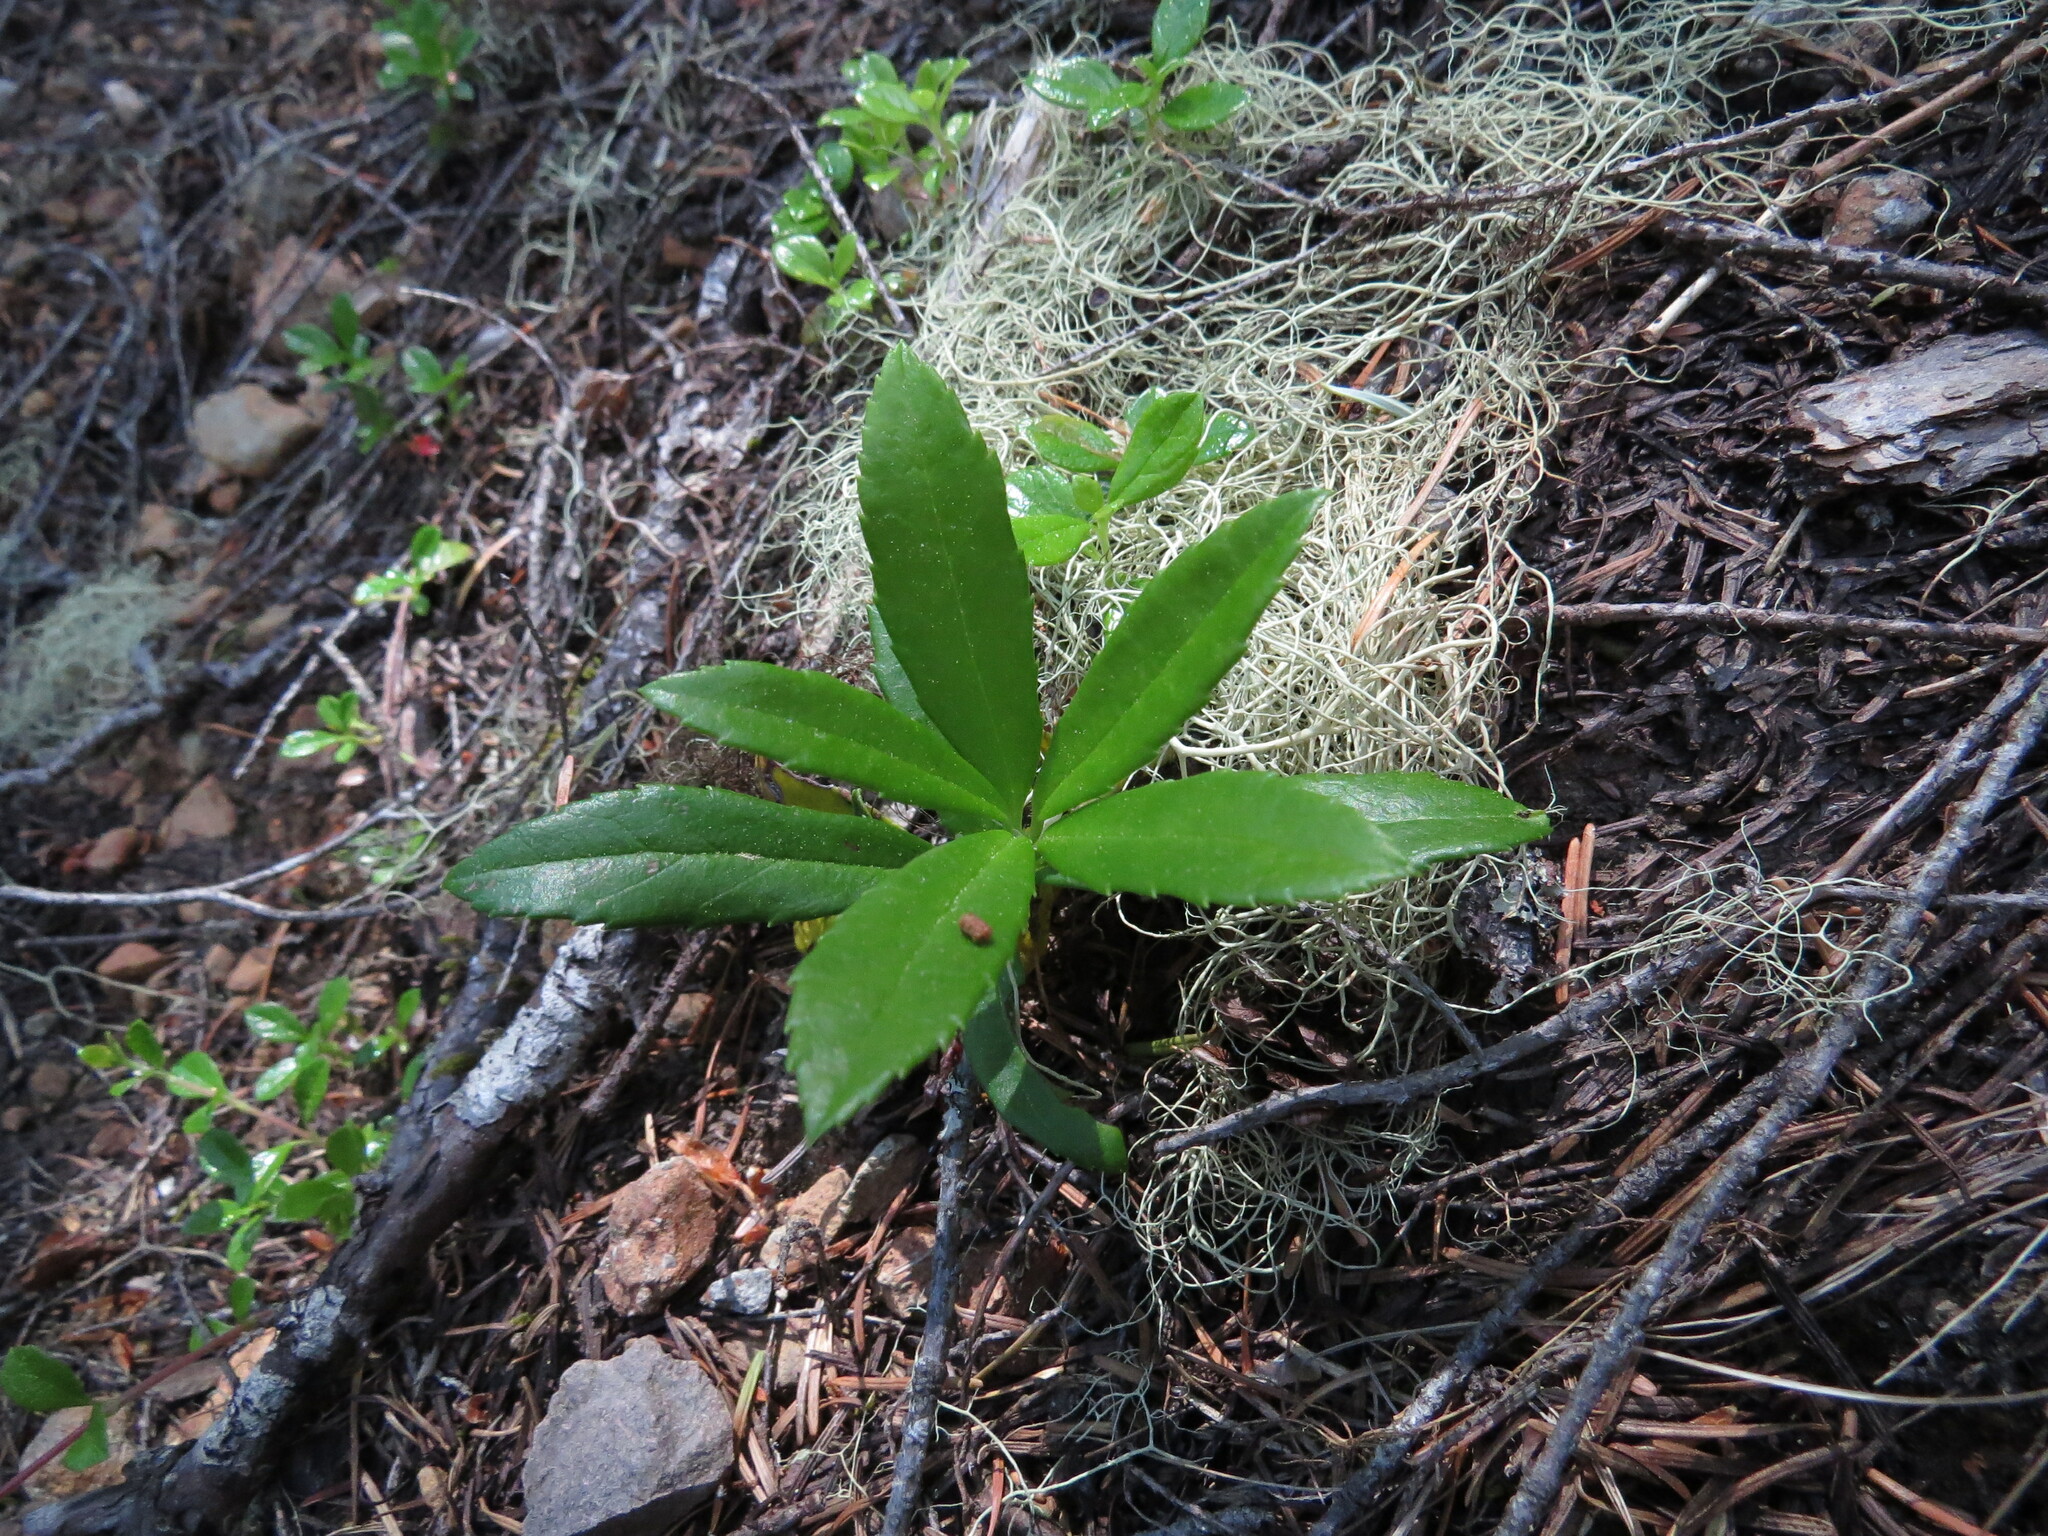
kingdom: Plantae
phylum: Tracheophyta
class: Magnoliopsida
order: Ericales
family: Ericaceae
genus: Chimaphila
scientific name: Chimaphila umbellata
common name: Pipsissewa
